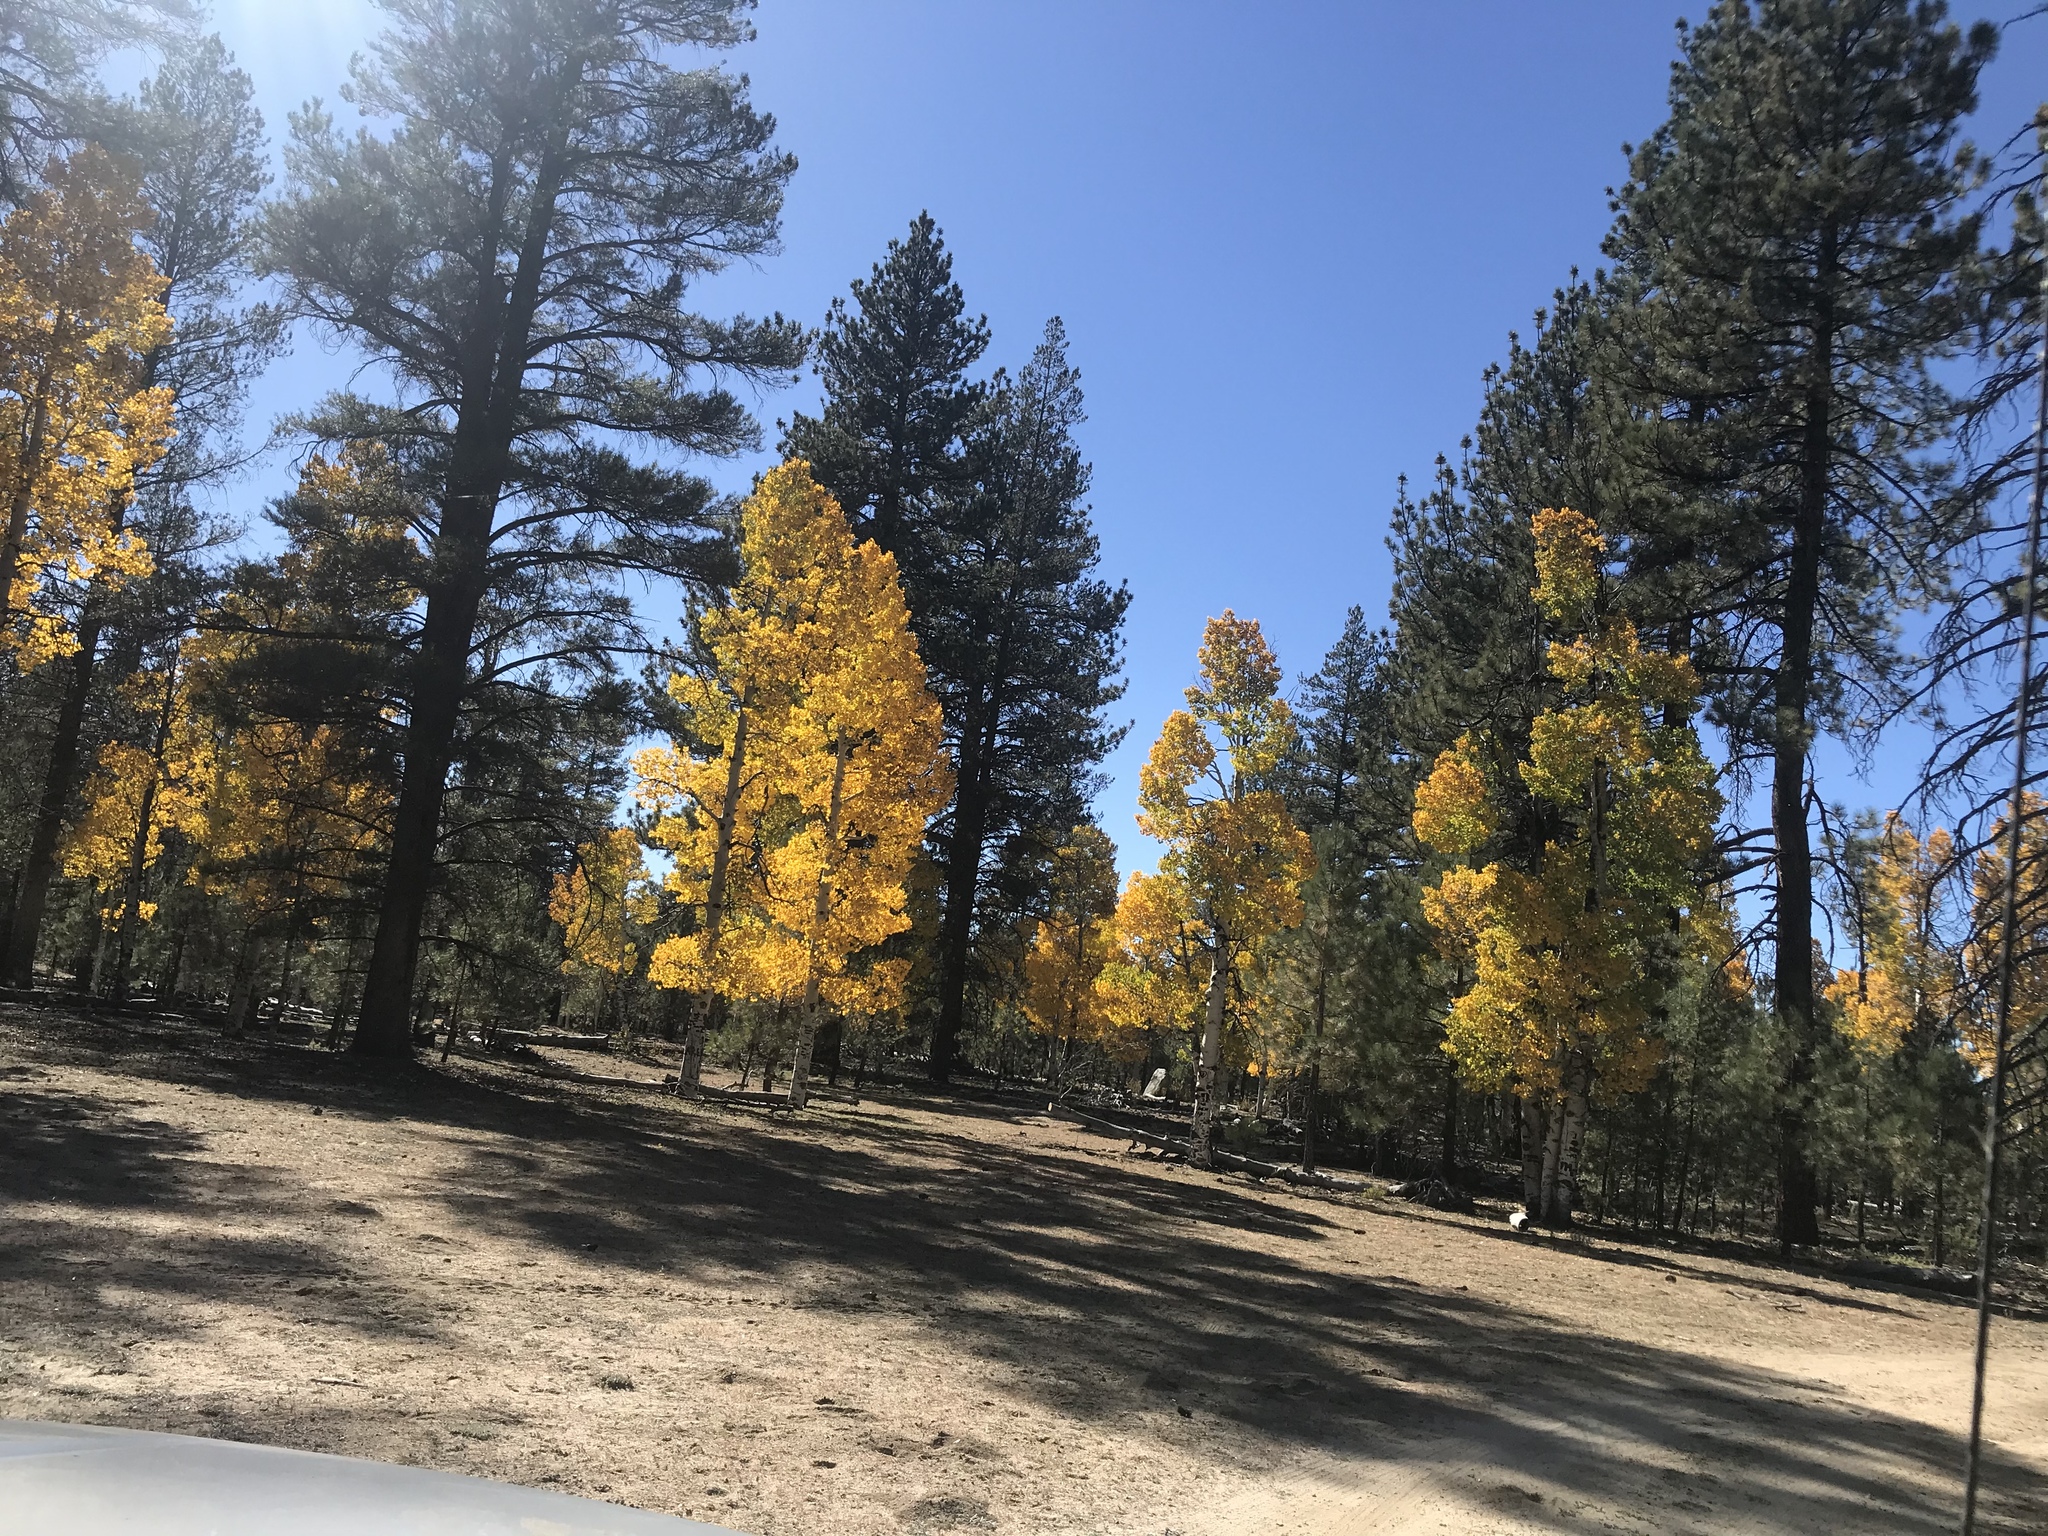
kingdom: Plantae
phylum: Tracheophyta
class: Magnoliopsida
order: Malpighiales
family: Salicaceae
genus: Populus
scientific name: Populus tremuloides
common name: Quaking aspen
